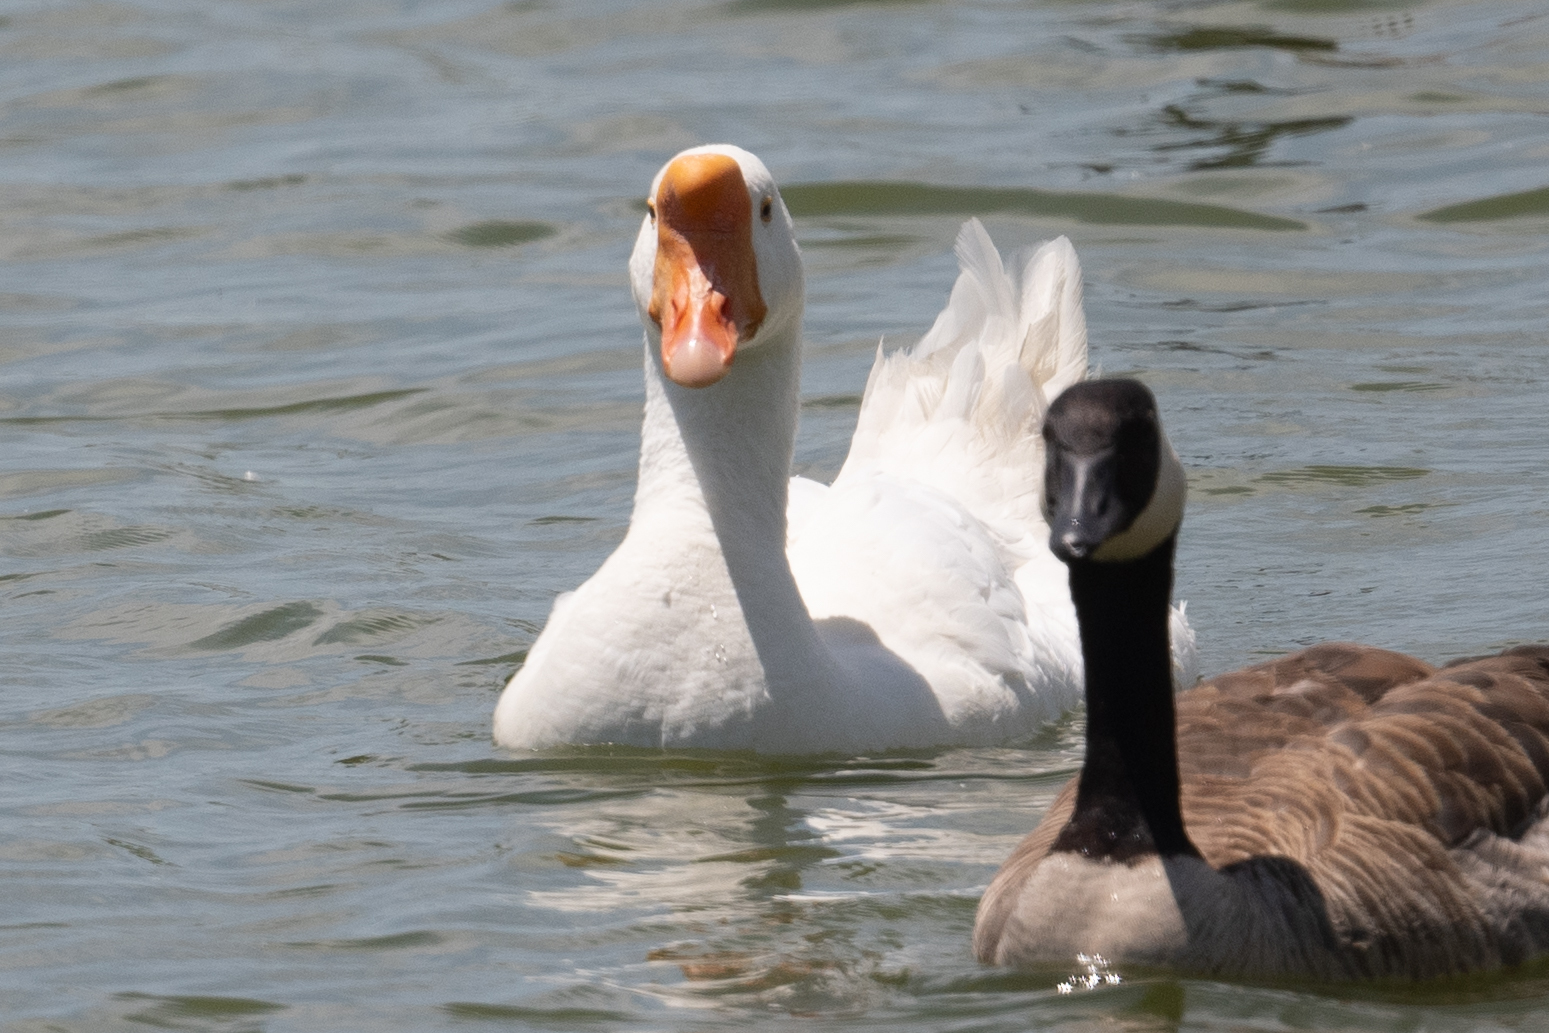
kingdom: Animalia
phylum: Chordata
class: Aves
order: Anseriformes
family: Anatidae
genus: Anser
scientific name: Anser cygnoides
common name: Swan goose
